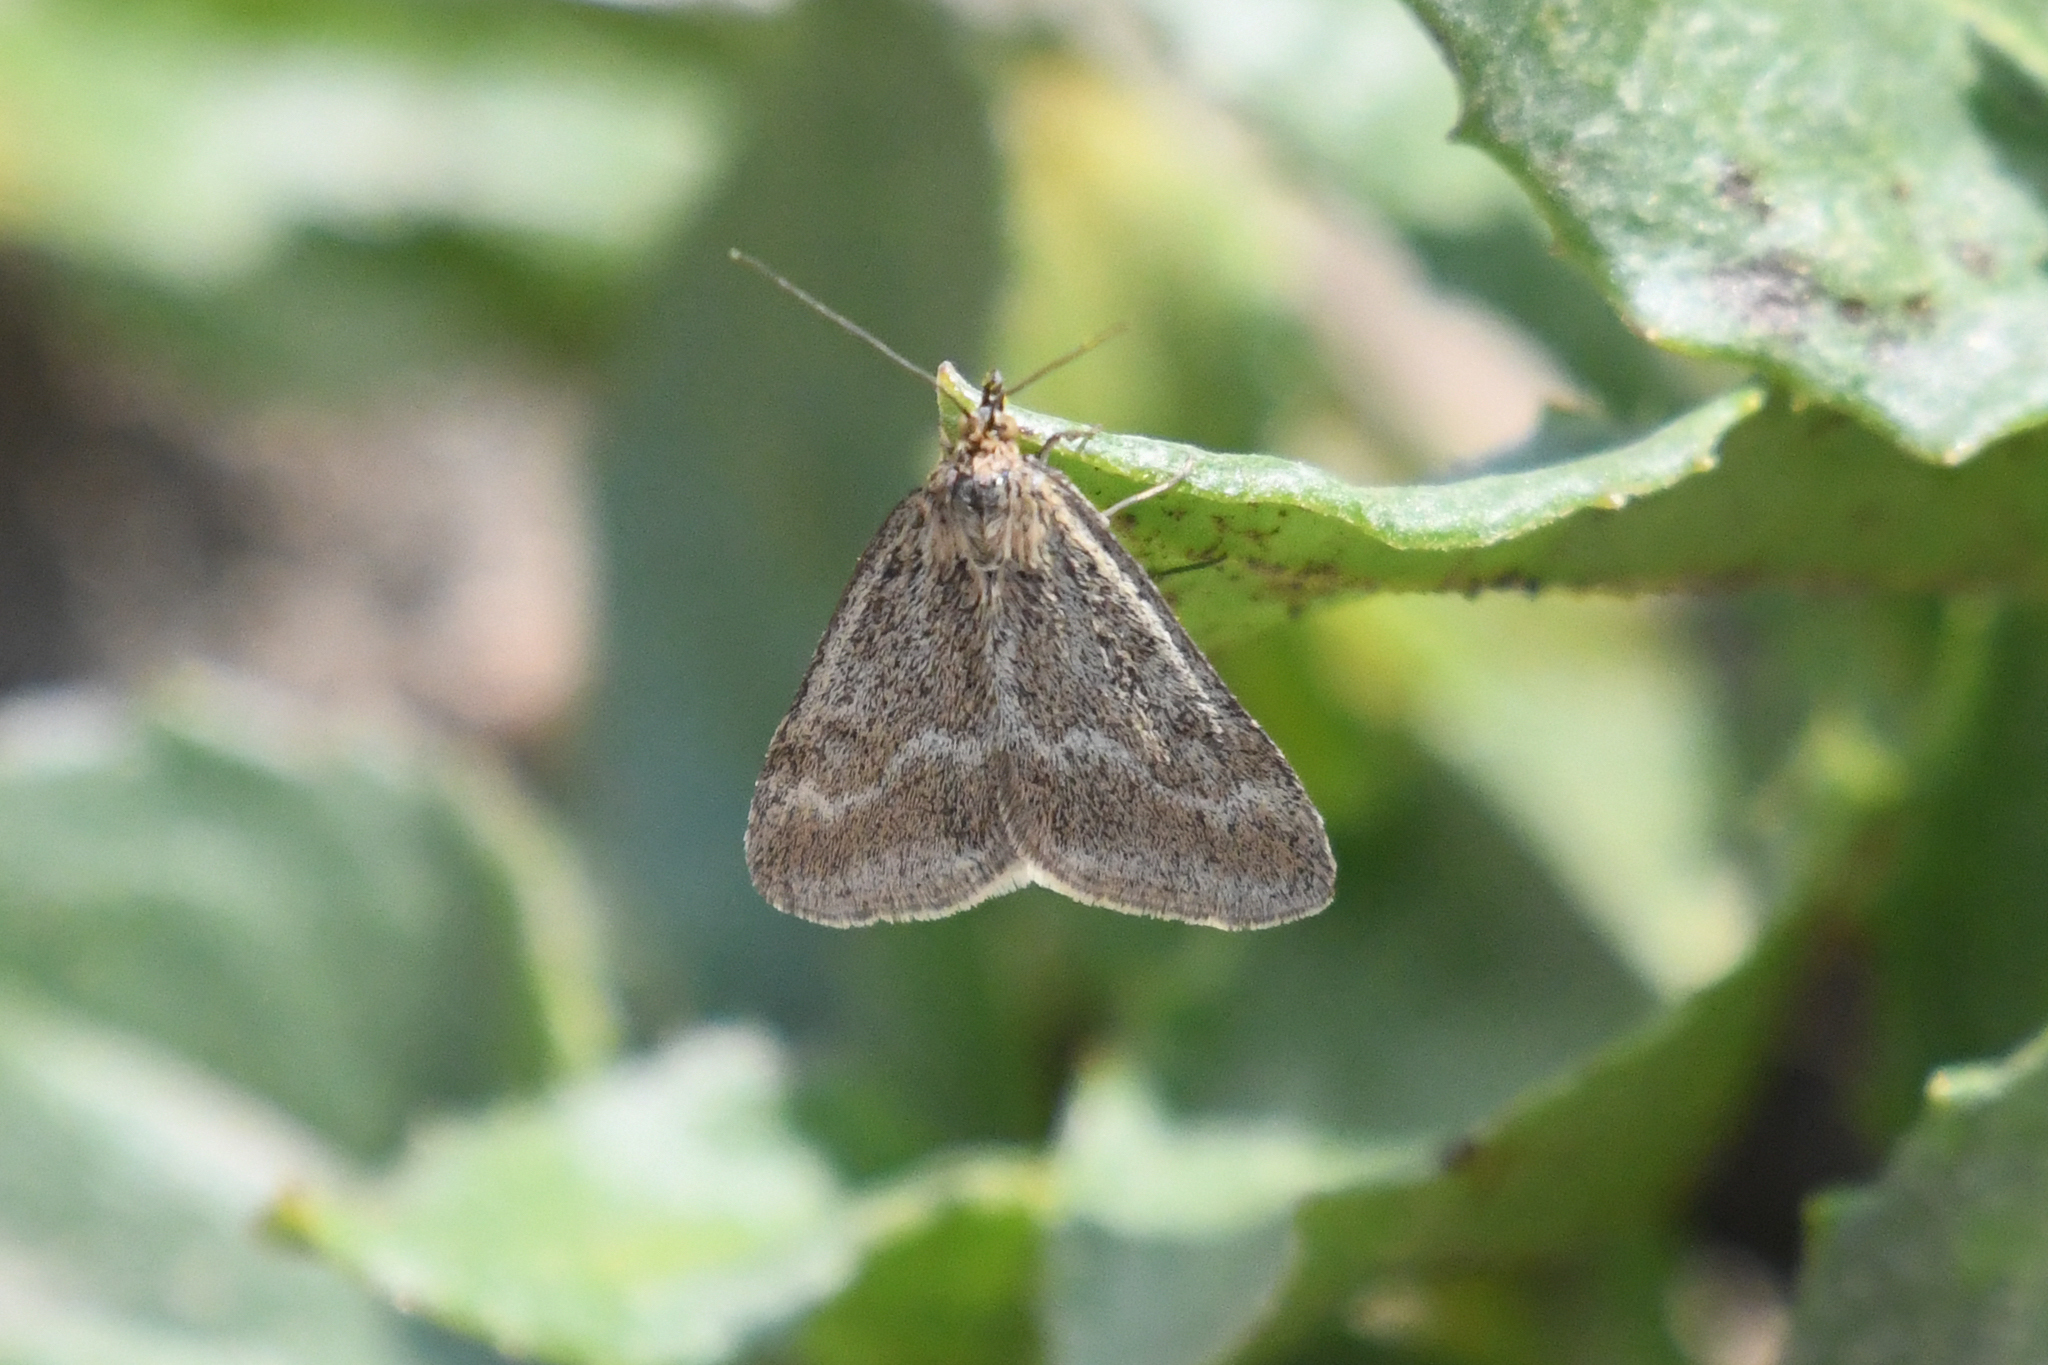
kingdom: Animalia
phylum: Arthropoda
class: Insecta
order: Lepidoptera
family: Crambidae
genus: Pyrausta
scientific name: Pyrausta unifascialis
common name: One-banded pyrausta
